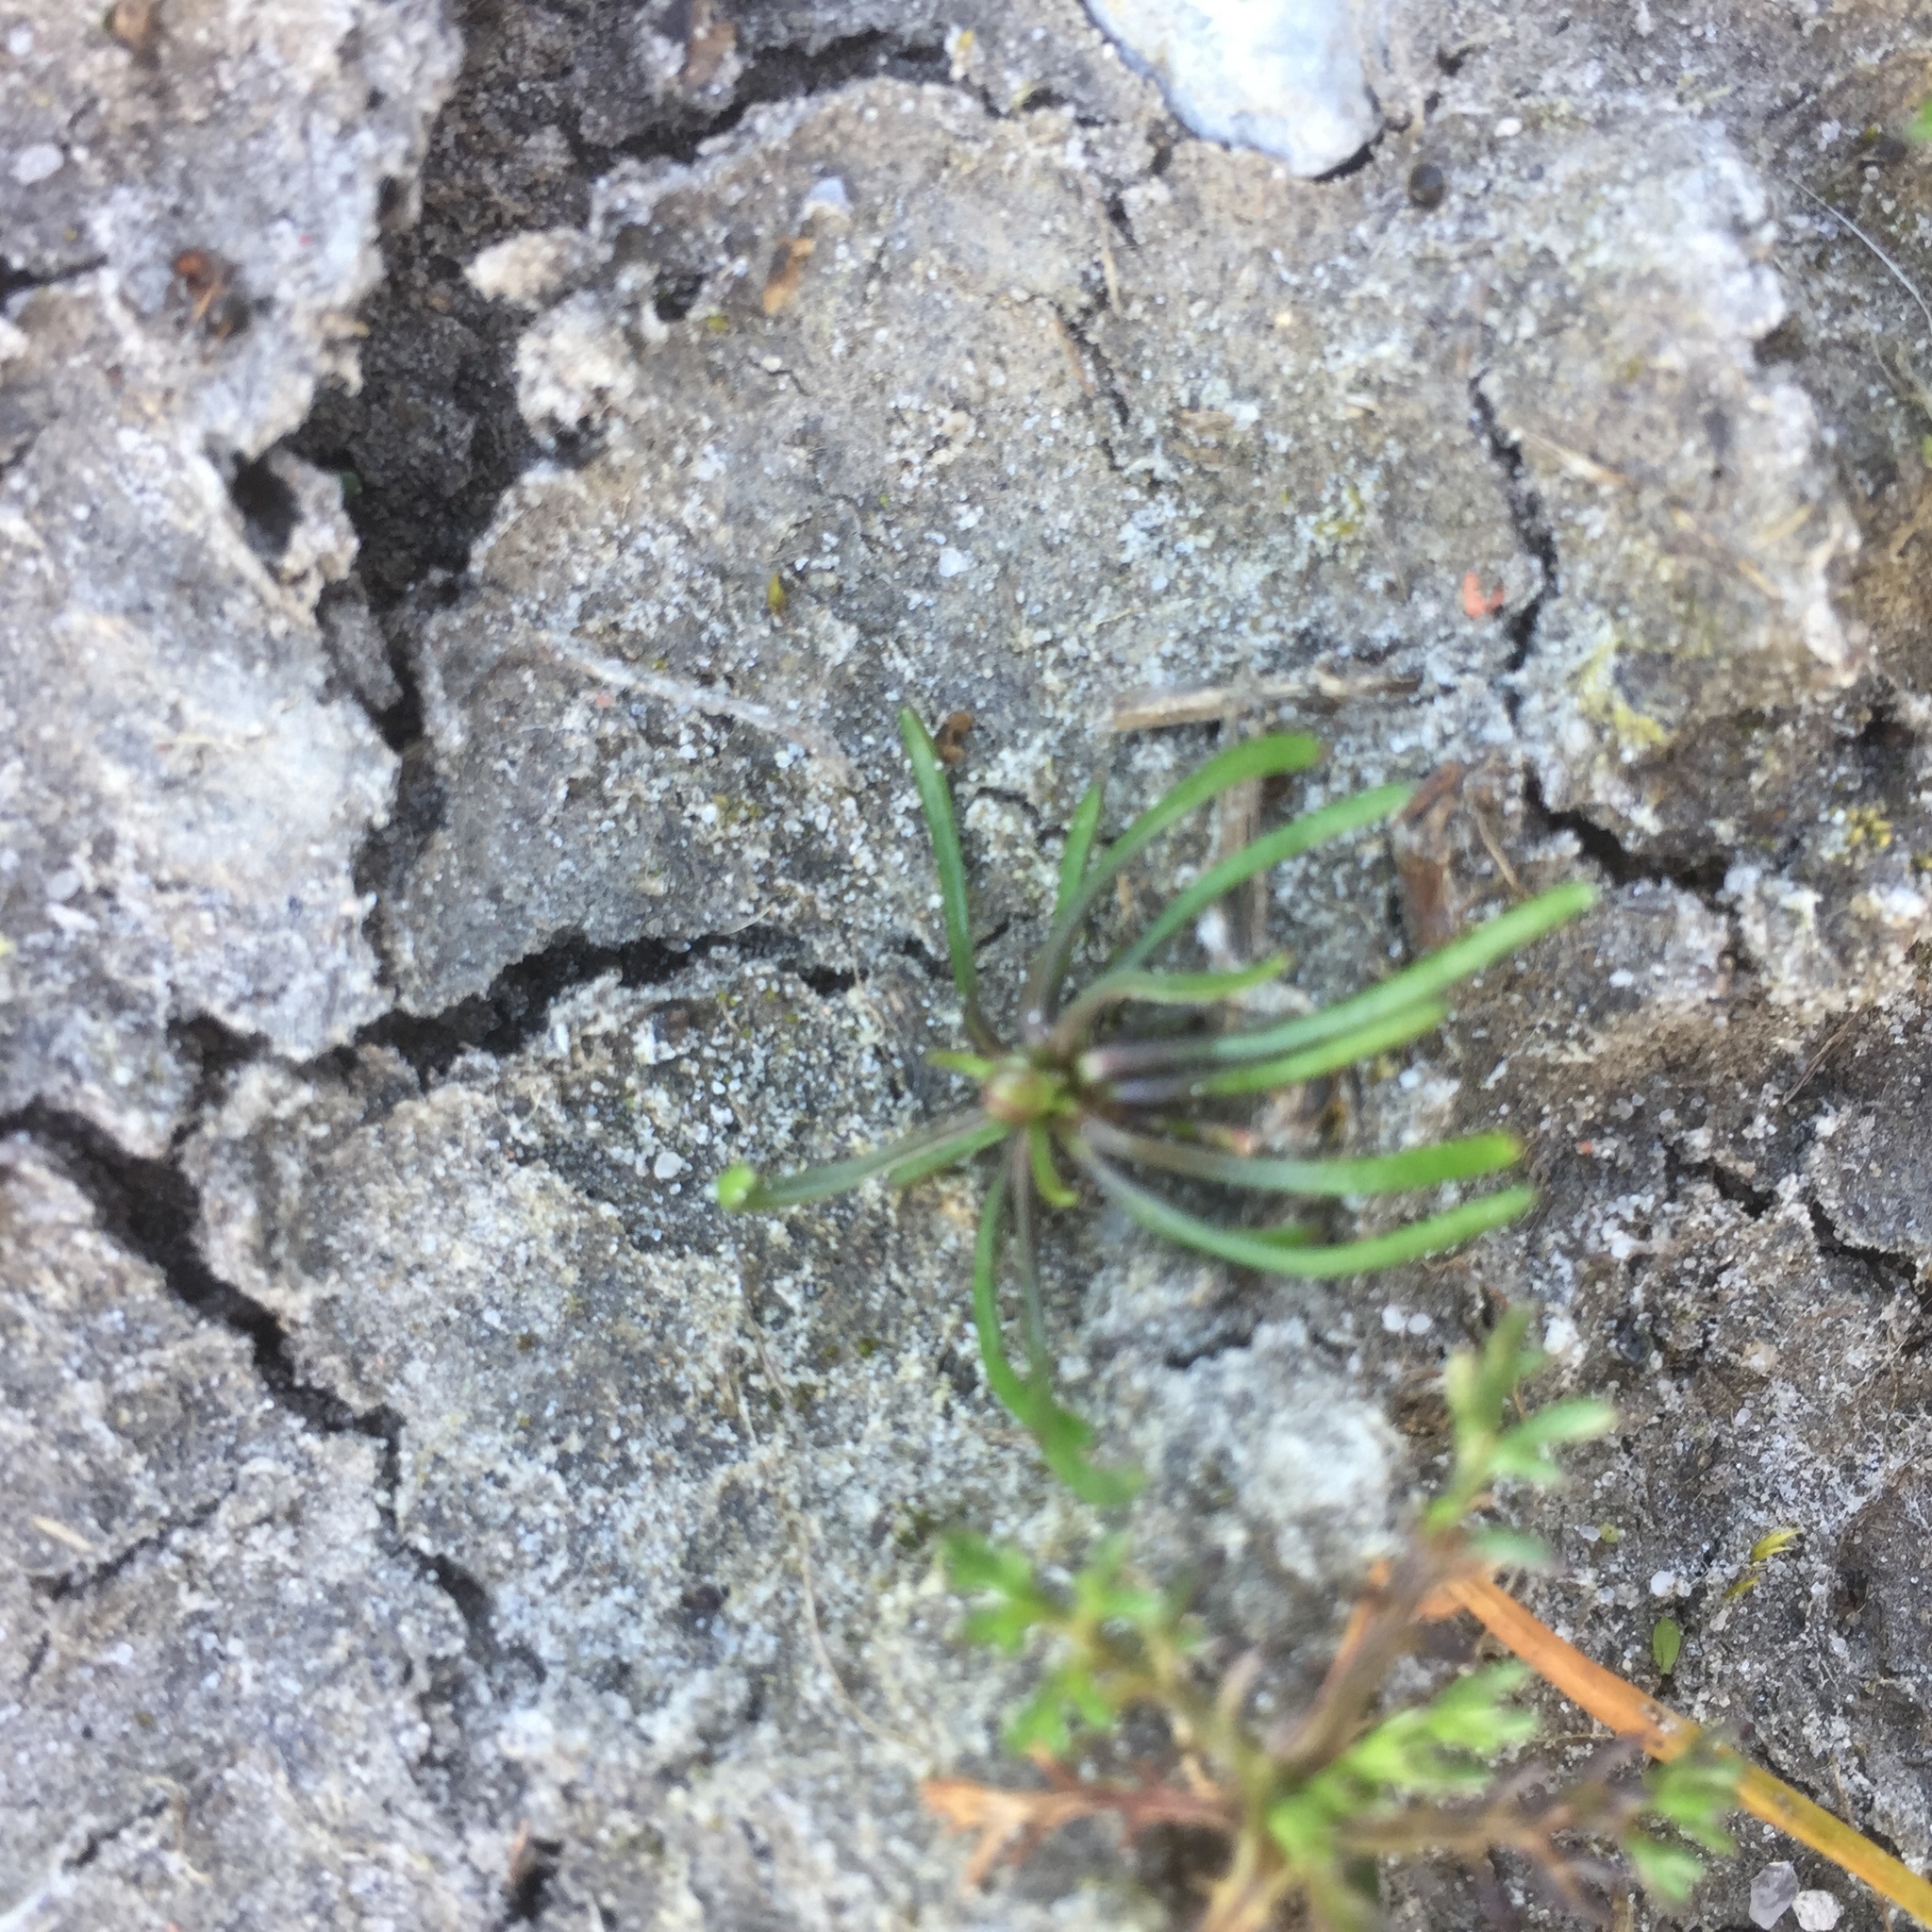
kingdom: Plantae
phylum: Tracheophyta
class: Magnoliopsida
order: Ranunculales
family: Ranunculaceae
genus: Myosurus
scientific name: Myosurus minimus
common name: Mousetail
